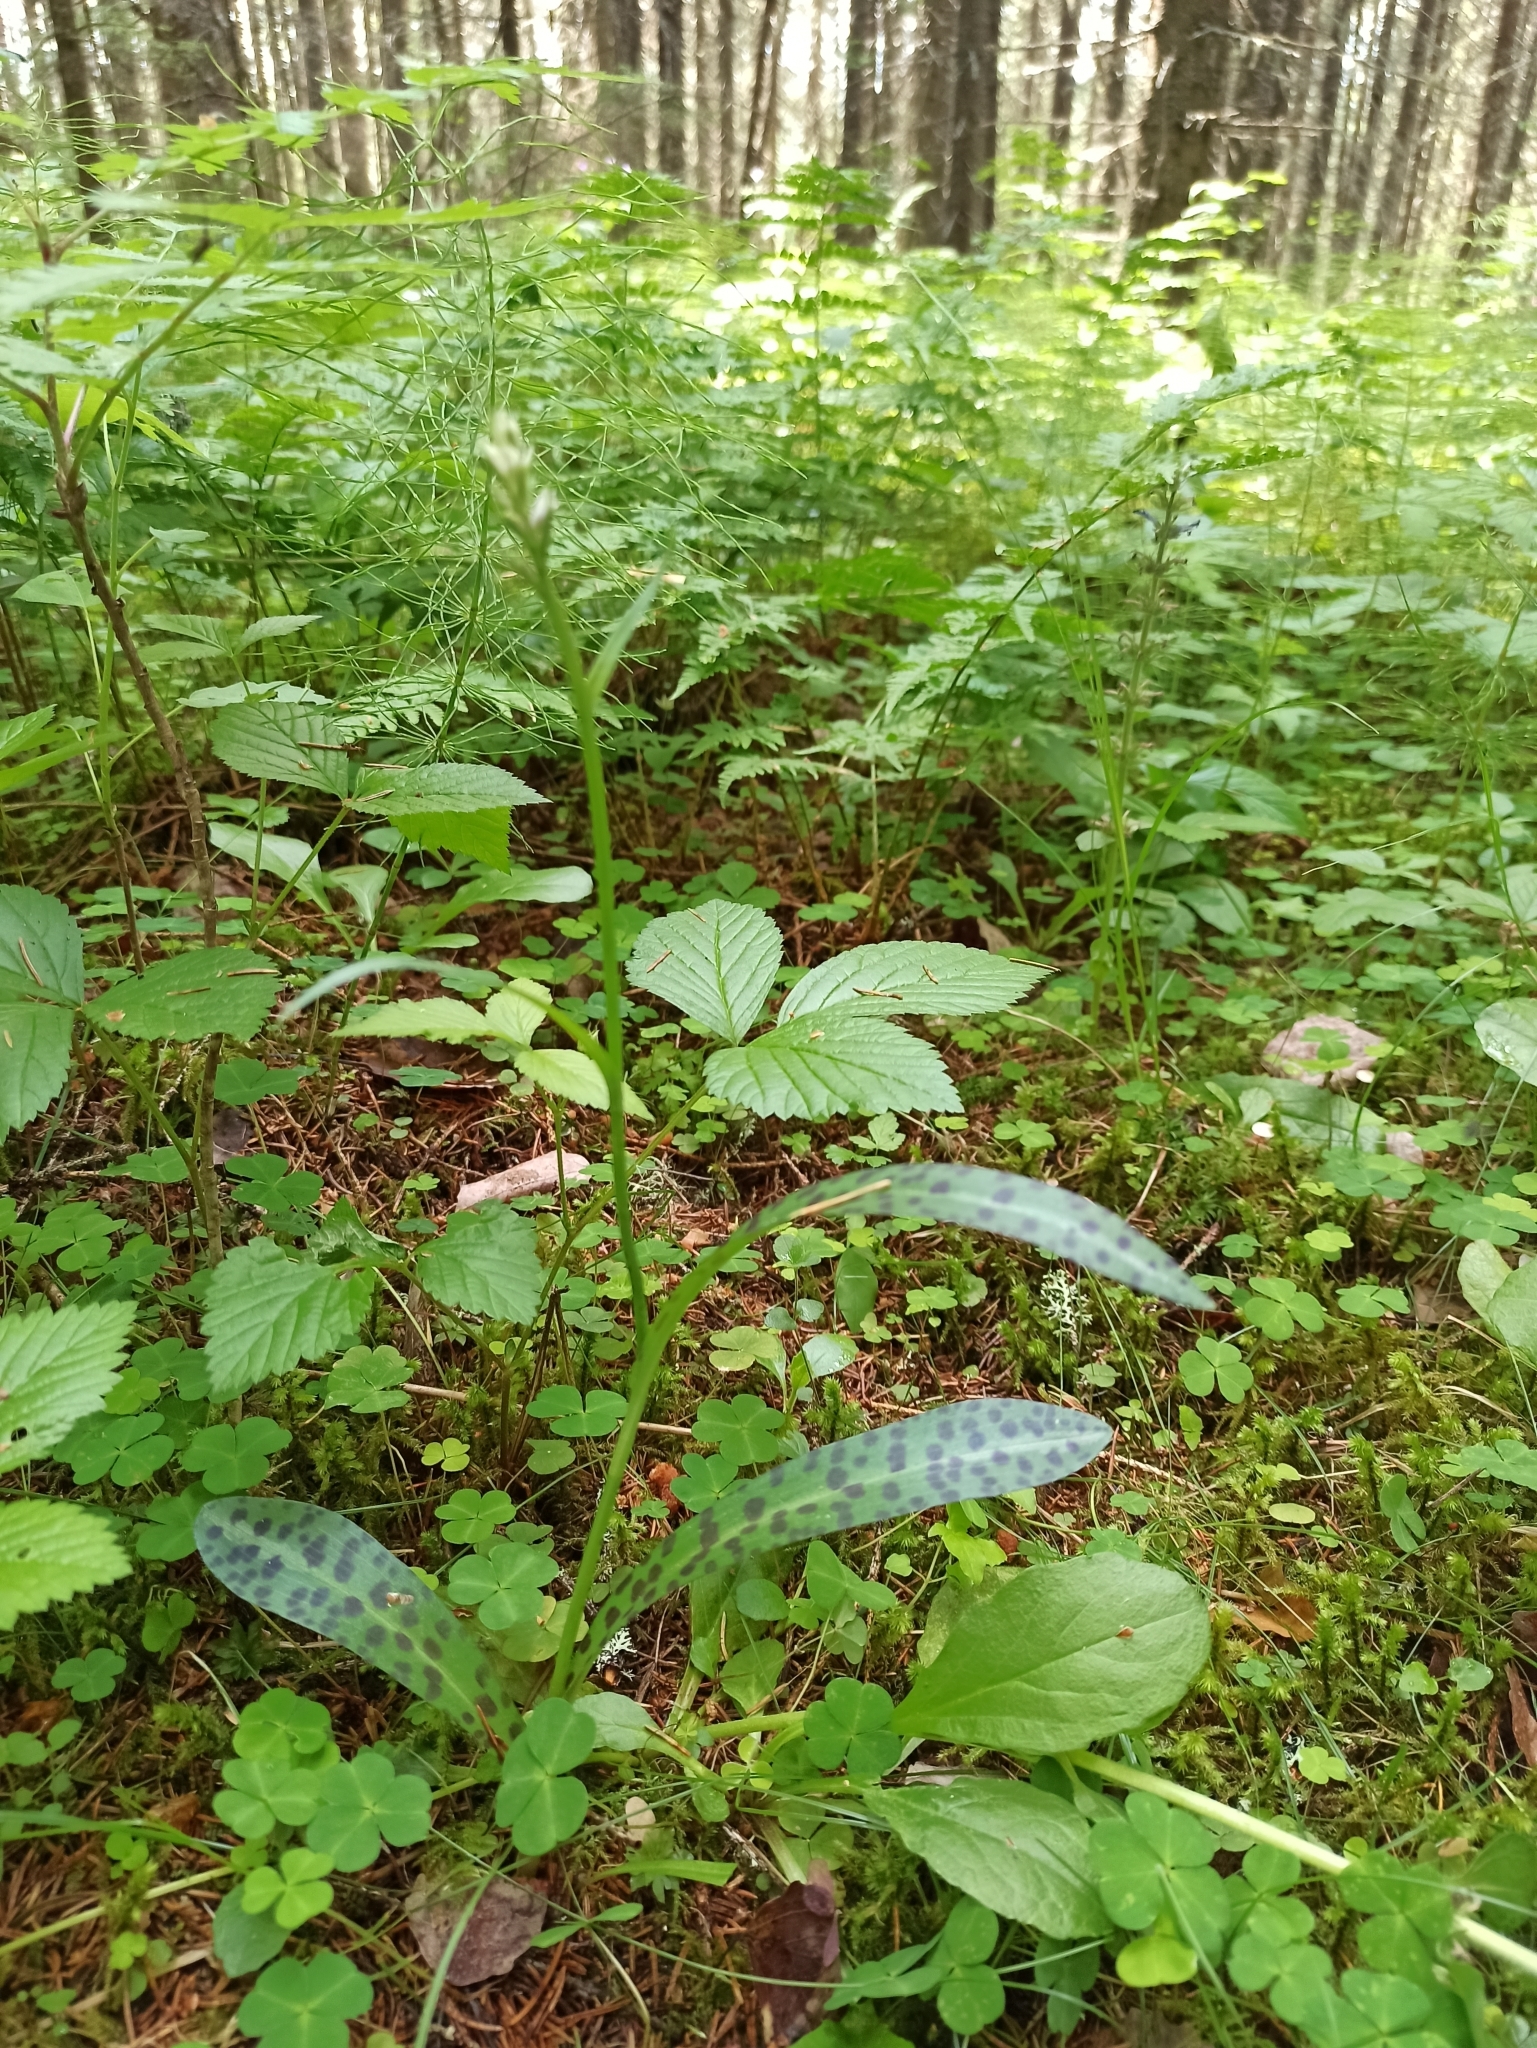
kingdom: Plantae
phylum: Tracheophyta
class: Liliopsida
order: Asparagales
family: Orchidaceae
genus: Dactylorhiza
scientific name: Dactylorhiza maculata
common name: Heath spotted-orchid
